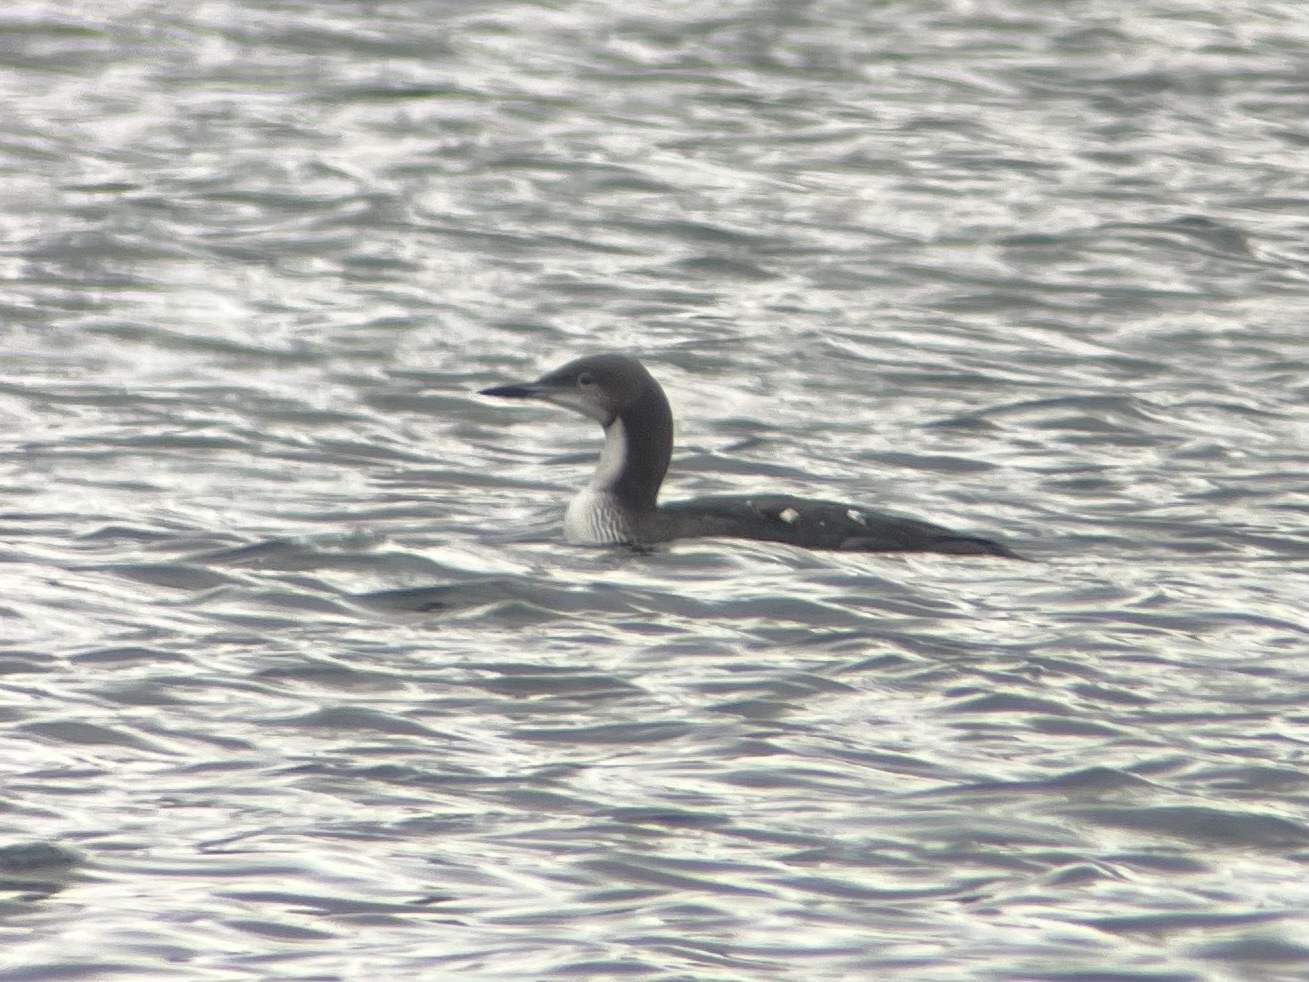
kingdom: Animalia
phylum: Chordata
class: Aves
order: Gaviiformes
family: Gaviidae
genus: Gavia
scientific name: Gavia pacifica
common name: Pacific loon
